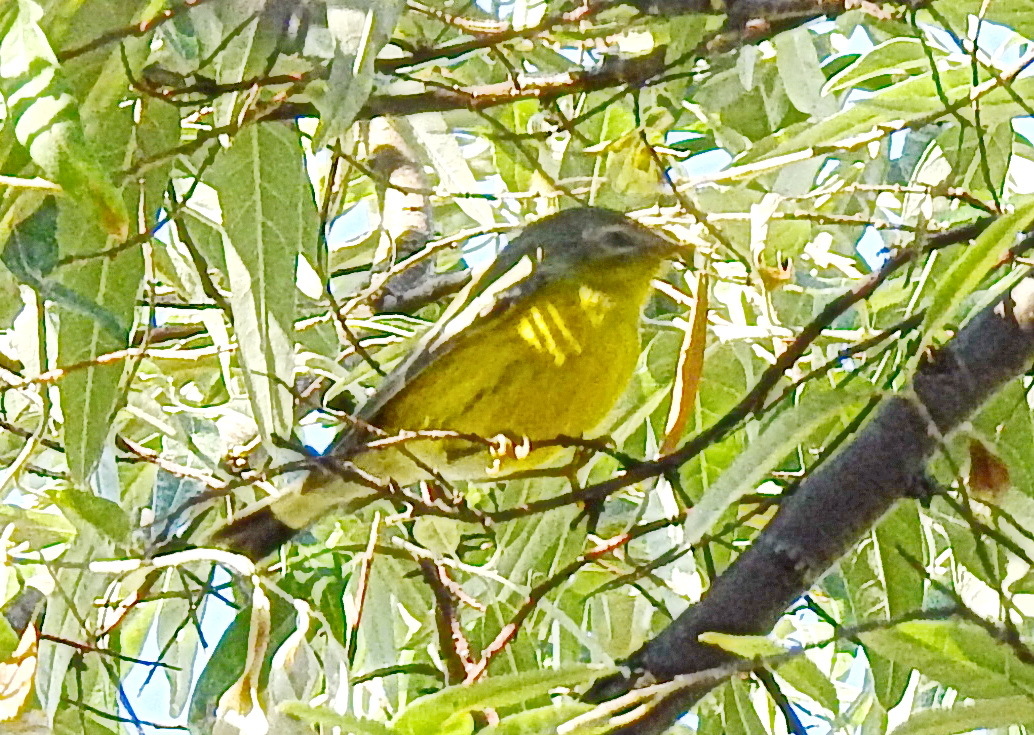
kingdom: Animalia
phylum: Chordata
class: Aves
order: Passeriformes
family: Parulidae
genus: Setophaga
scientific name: Setophaga magnolia
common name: Magnolia warbler
